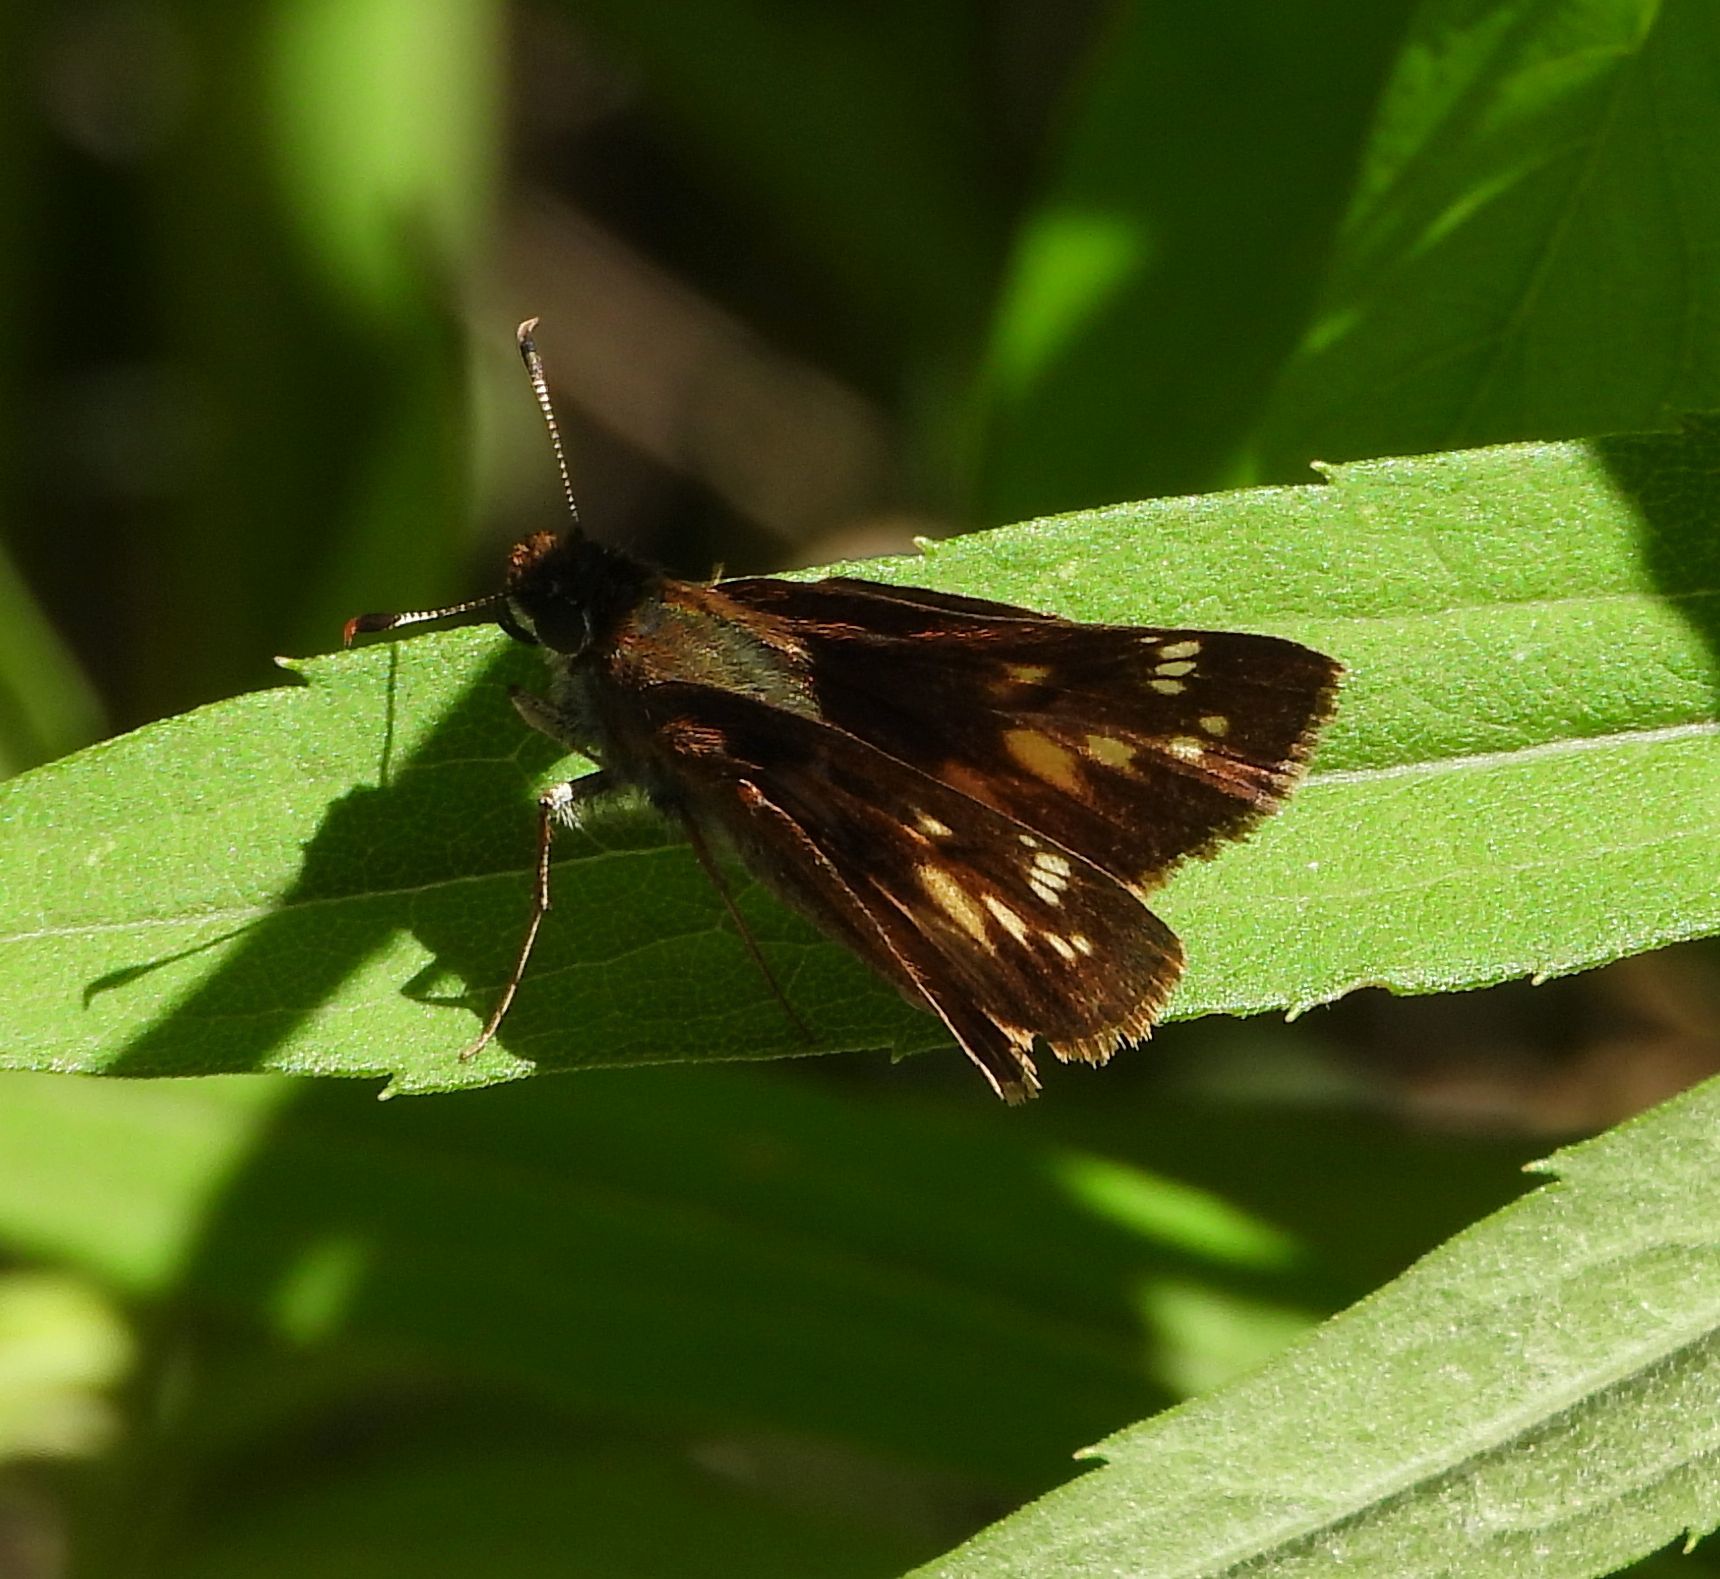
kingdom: Animalia
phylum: Arthropoda
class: Insecta
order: Lepidoptera
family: Hesperiidae
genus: Lon
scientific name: Lon hobomok
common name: Hobomok skipper
